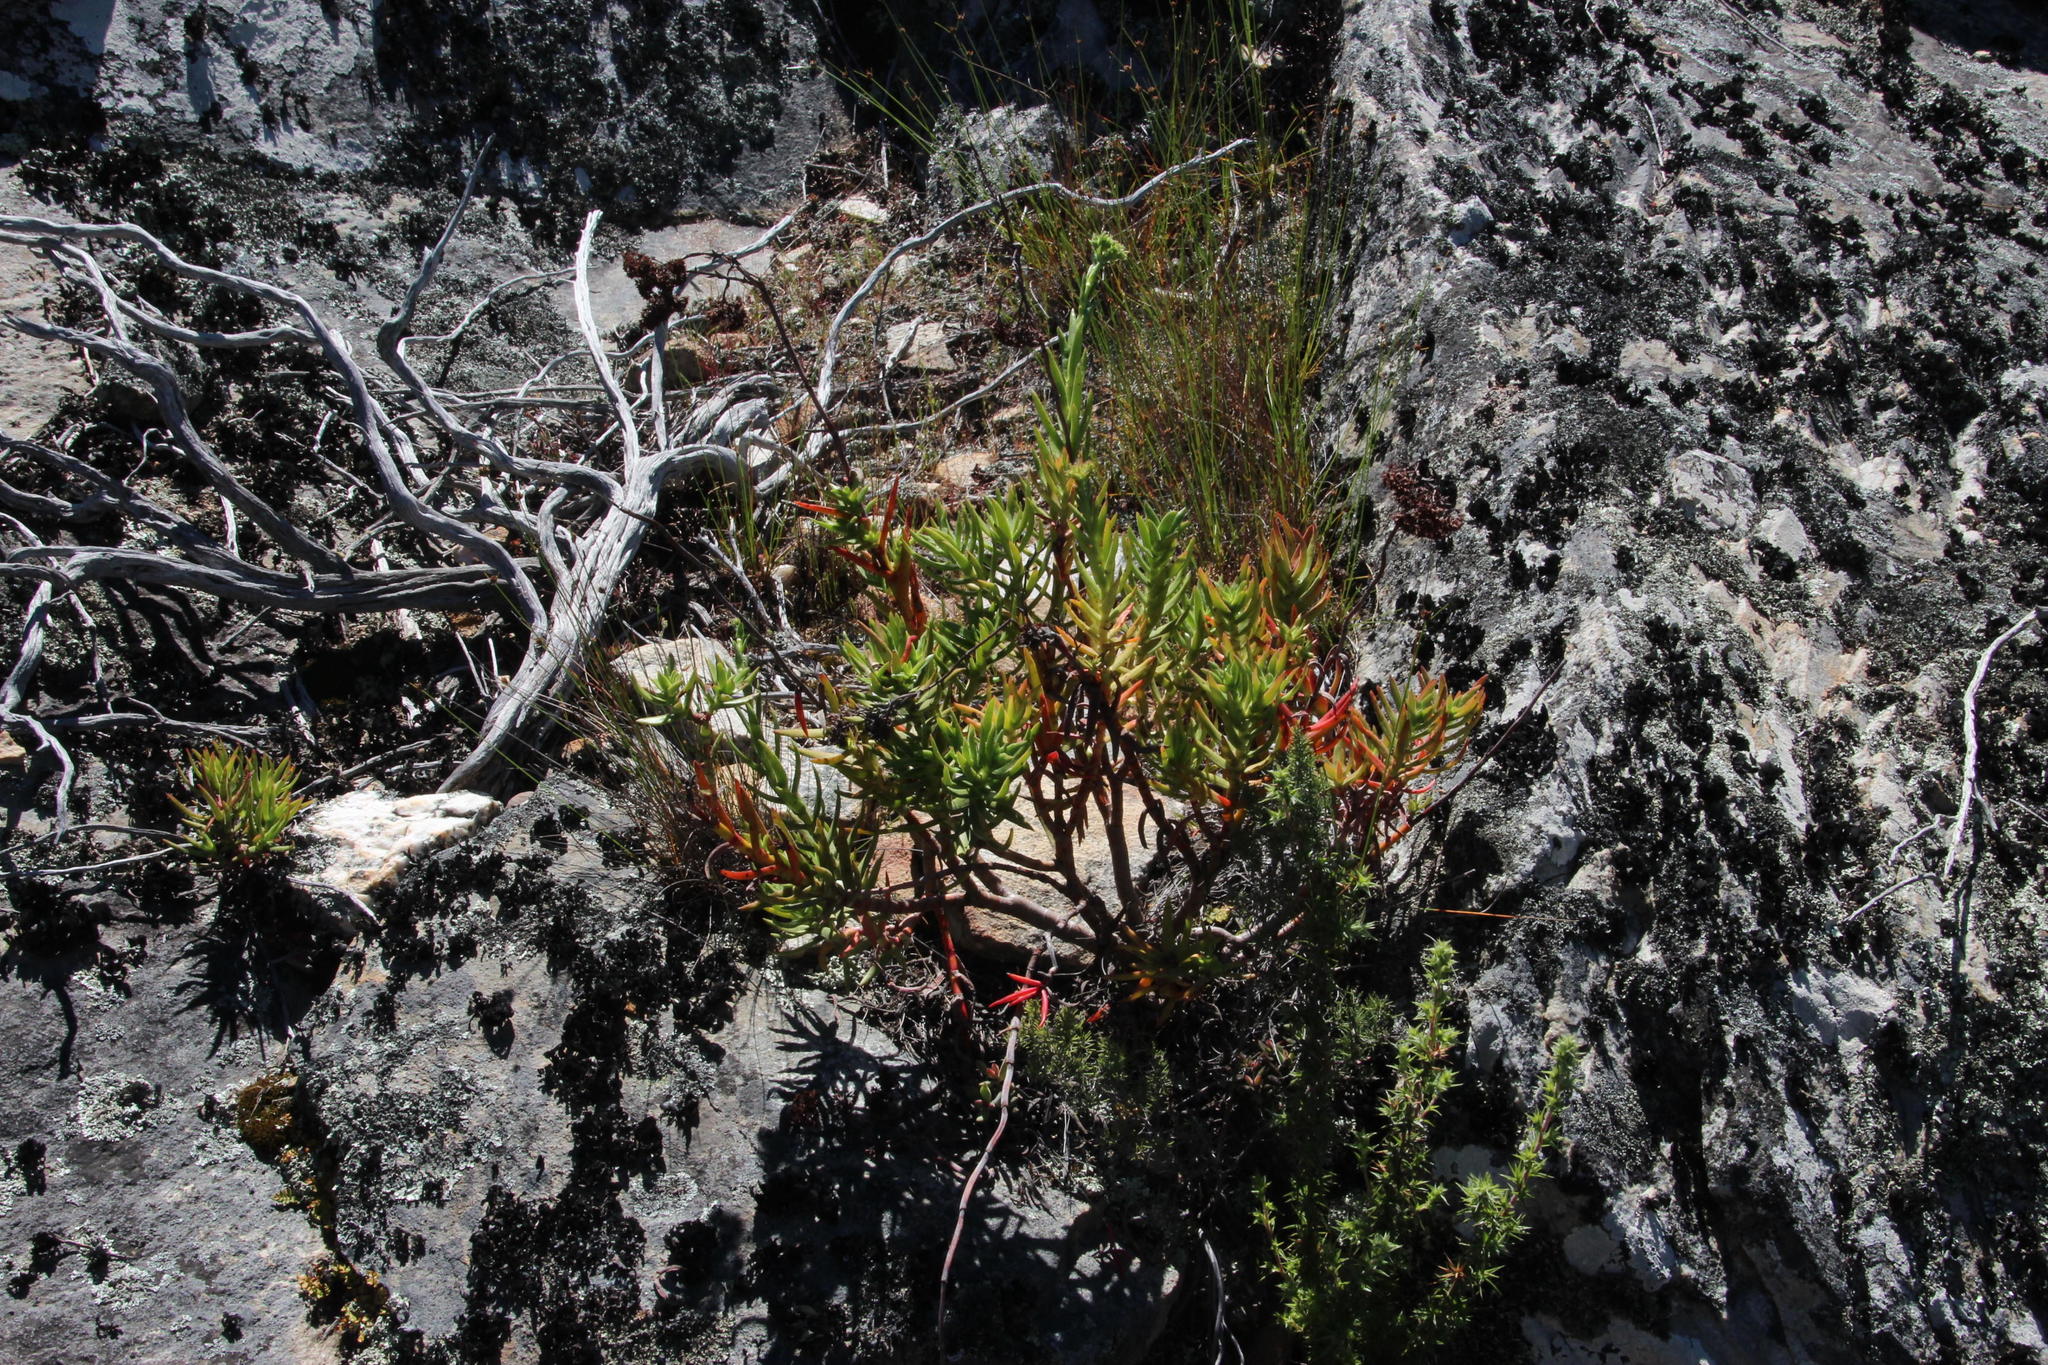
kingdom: Plantae
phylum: Tracheophyta
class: Magnoliopsida
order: Saxifragales
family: Crassulaceae
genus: Crassula
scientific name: Crassula multiflora
